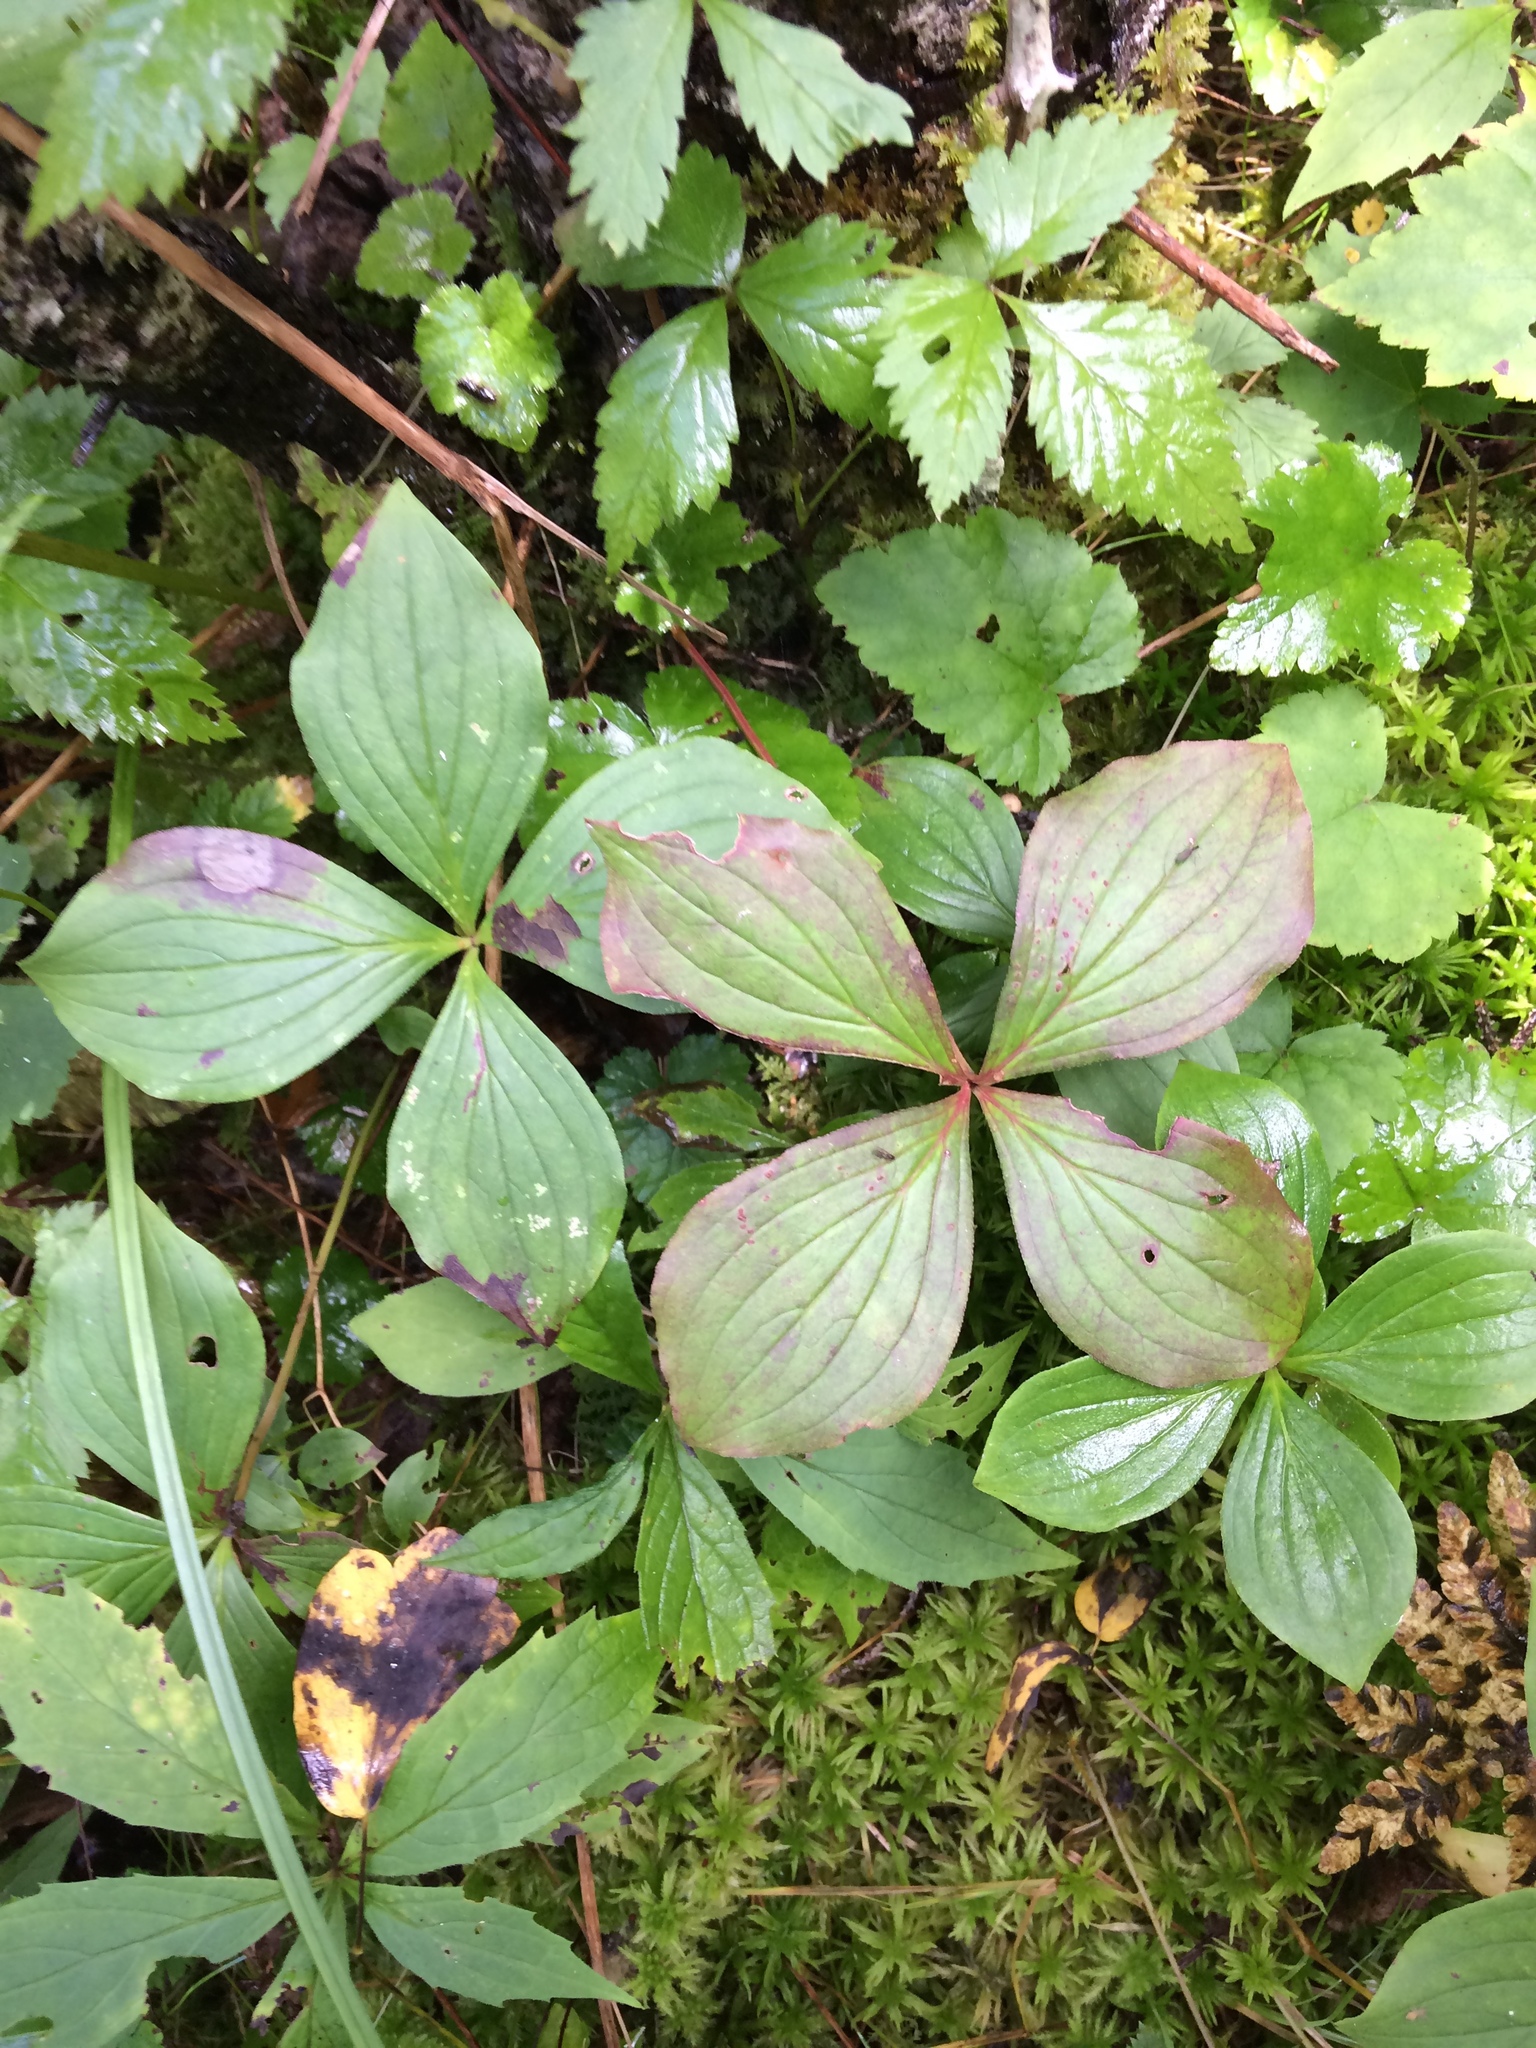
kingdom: Plantae
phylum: Tracheophyta
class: Magnoliopsida
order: Cornales
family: Cornaceae
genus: Cornus
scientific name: Cornus canadensis
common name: Creeping dogwood
